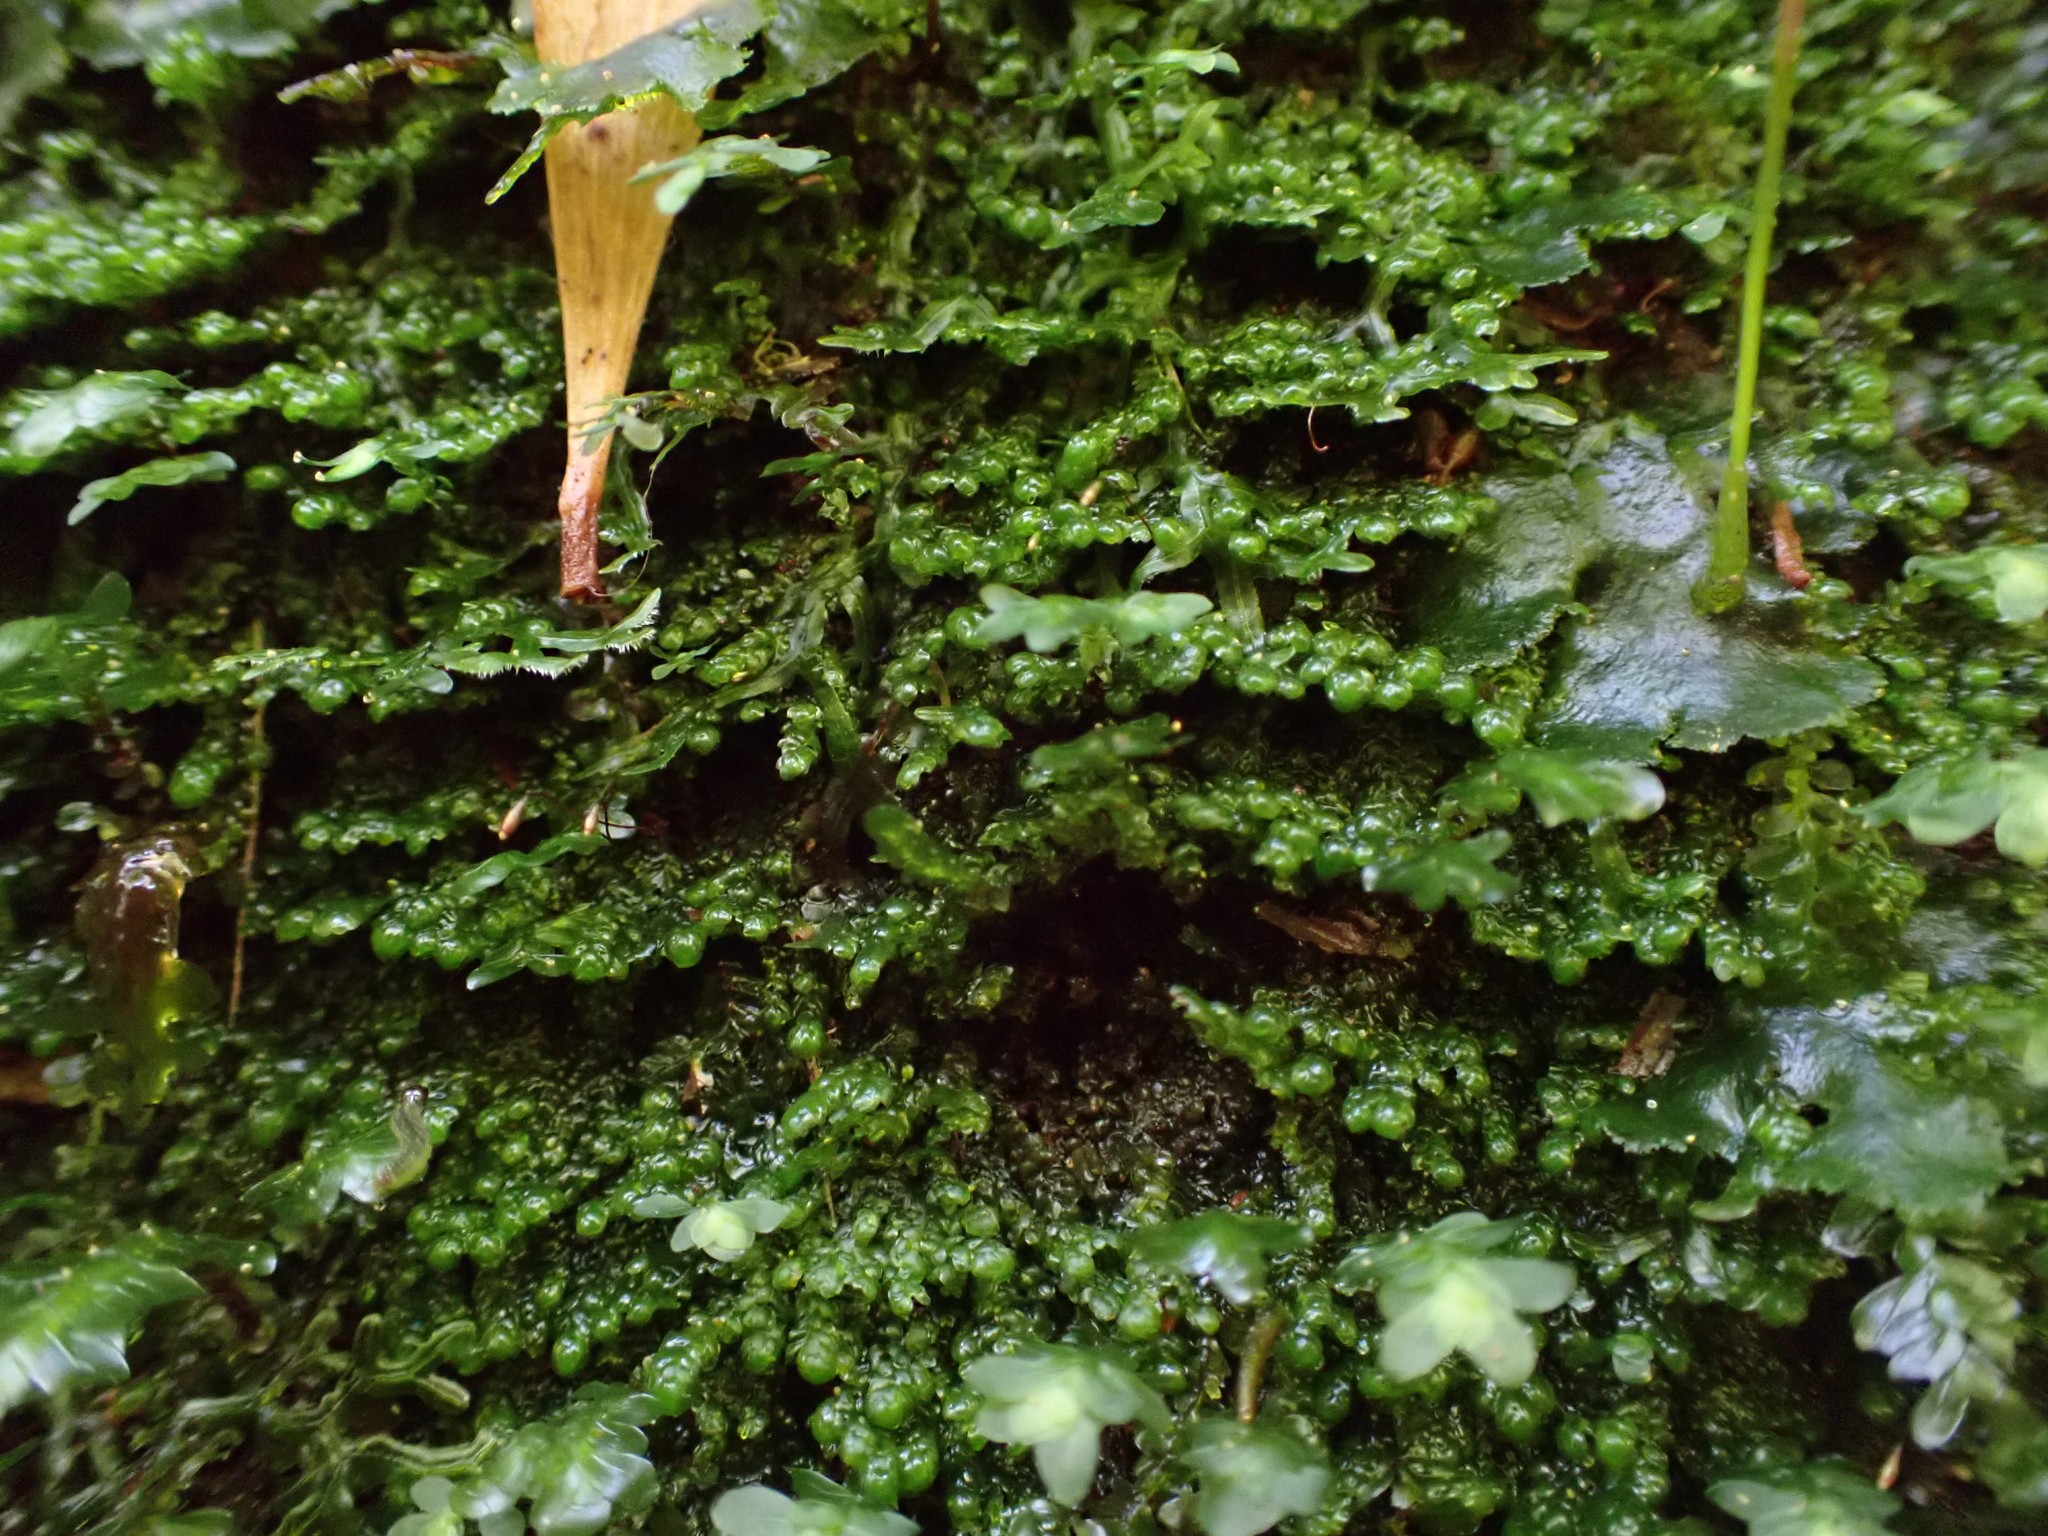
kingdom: Plantae
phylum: Bryophyta
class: Bryopsida
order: Hookeriales
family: Daltoniaceae
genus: Distichophyllum
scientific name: Distichophyllum microcarpon
